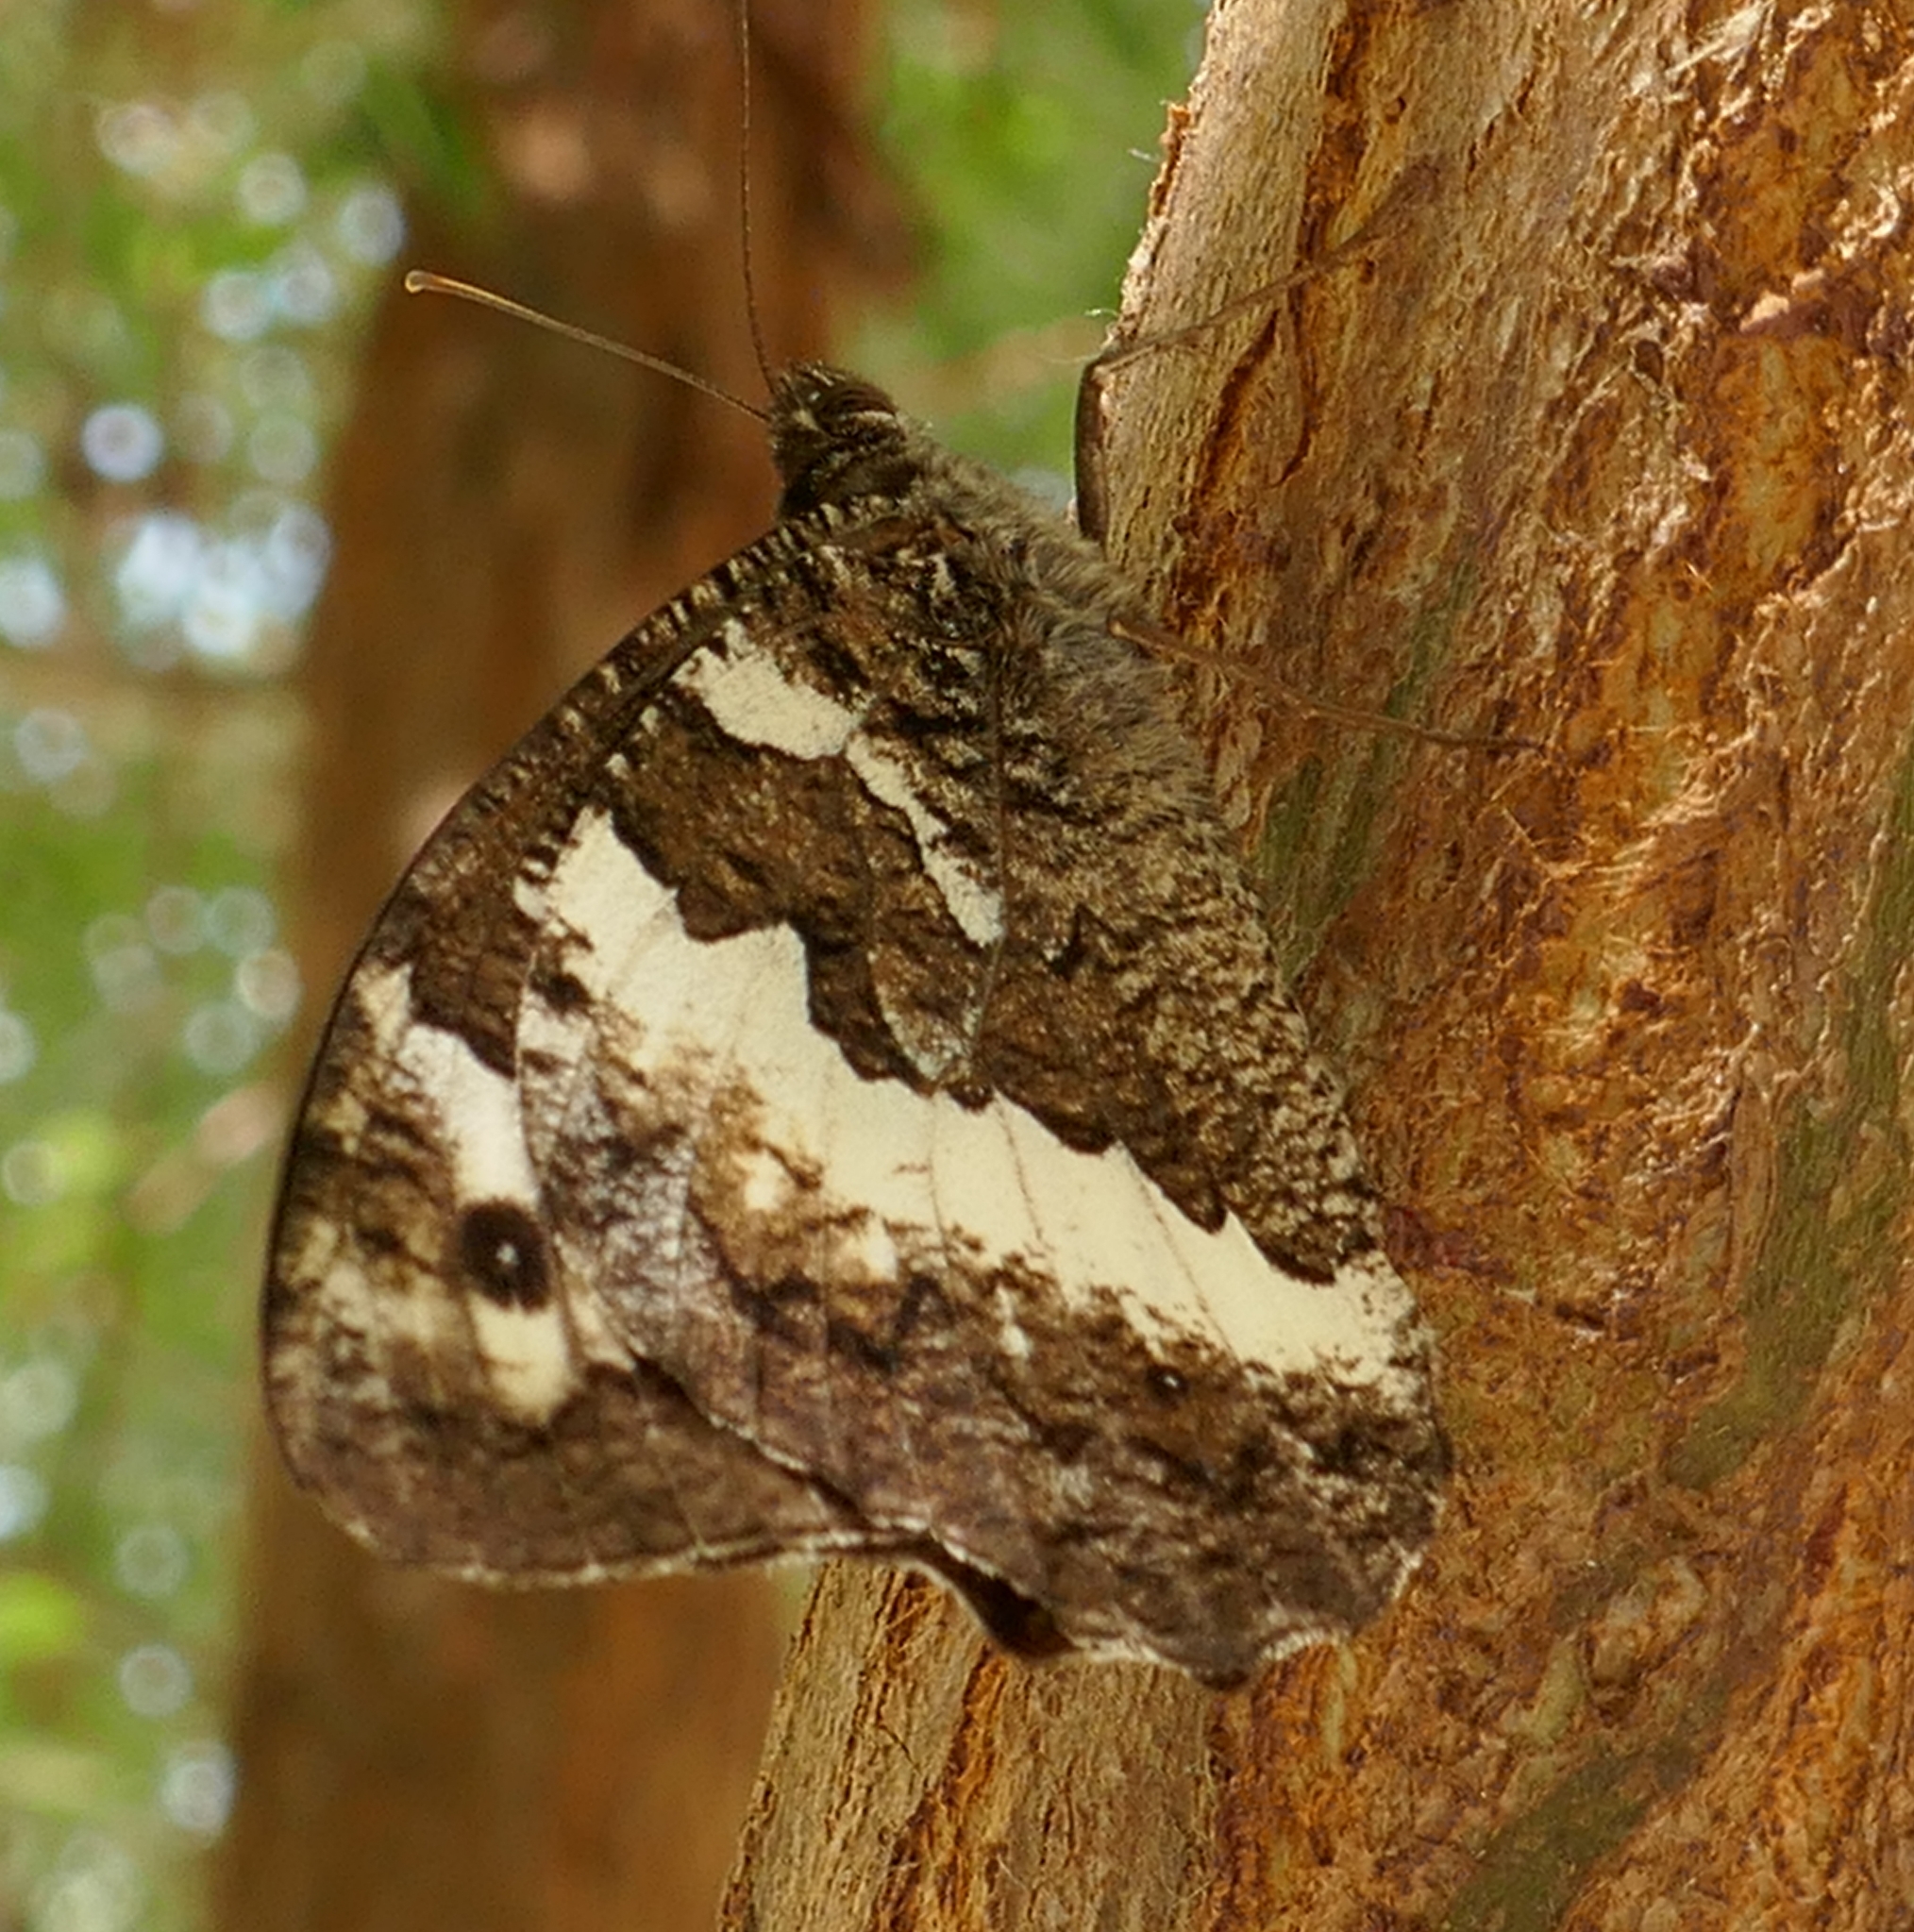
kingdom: Animalia
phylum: Arthropoda
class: Insecta
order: Lepidoptera
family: Lycaenidae
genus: Loweia
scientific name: Loweia tityrus
